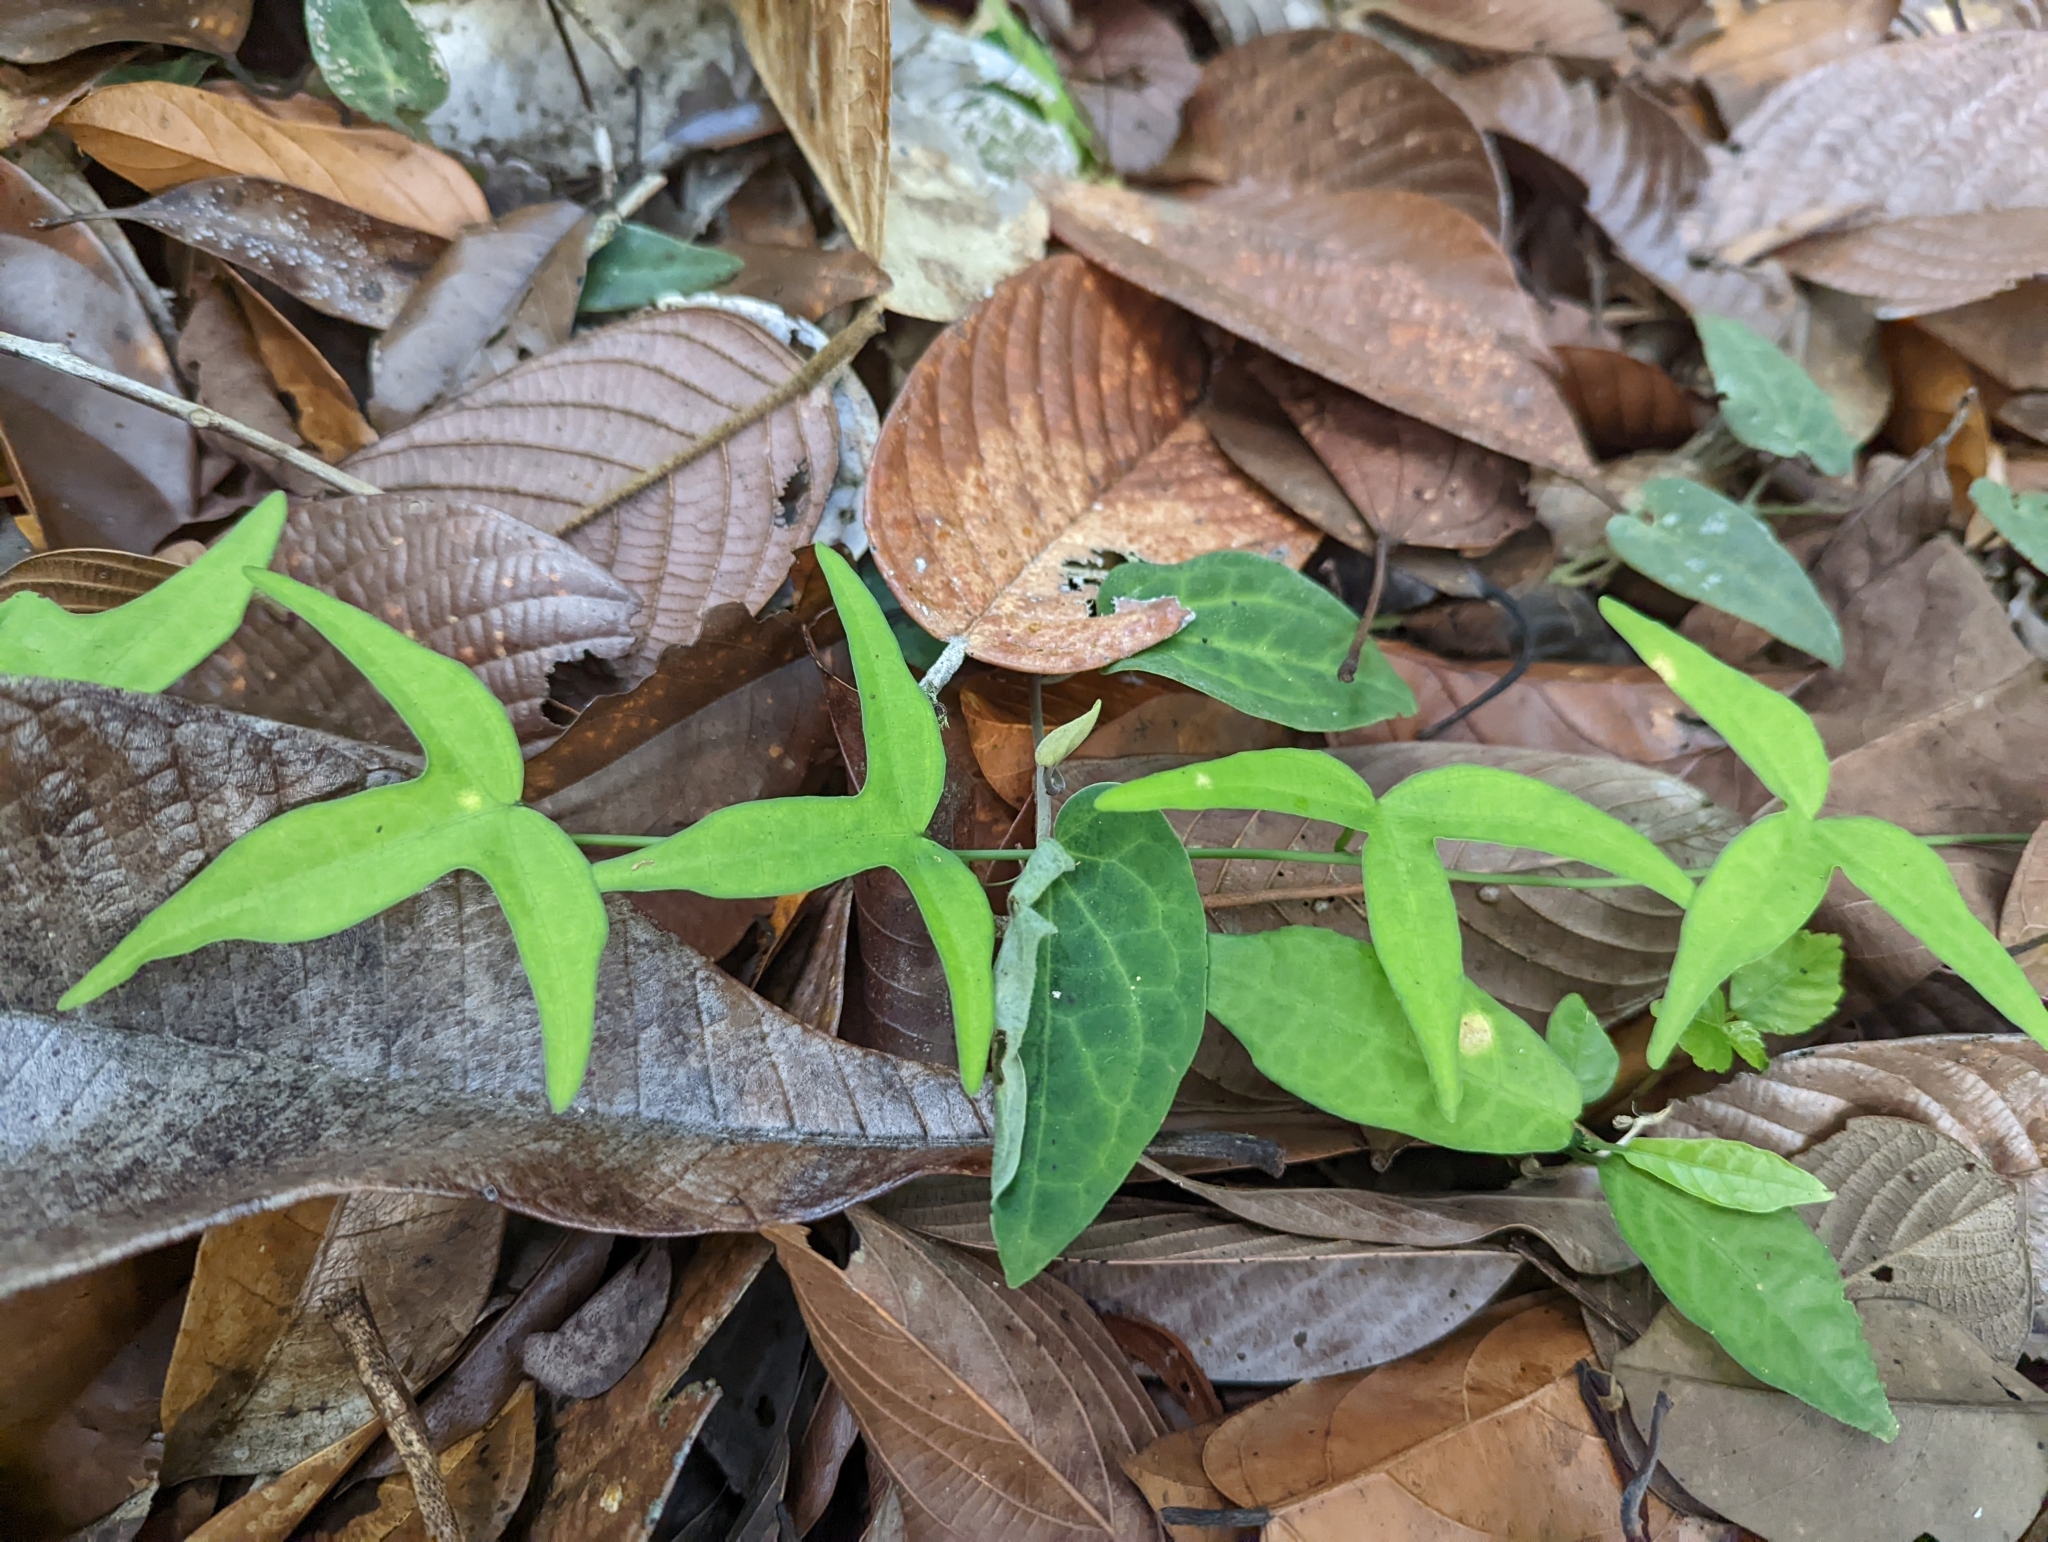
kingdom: Plantae
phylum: Tracheophyta
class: Magnoliopsida
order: Malpighiales
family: Passifloraceae
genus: Adenia
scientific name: Adenia cordifolia
